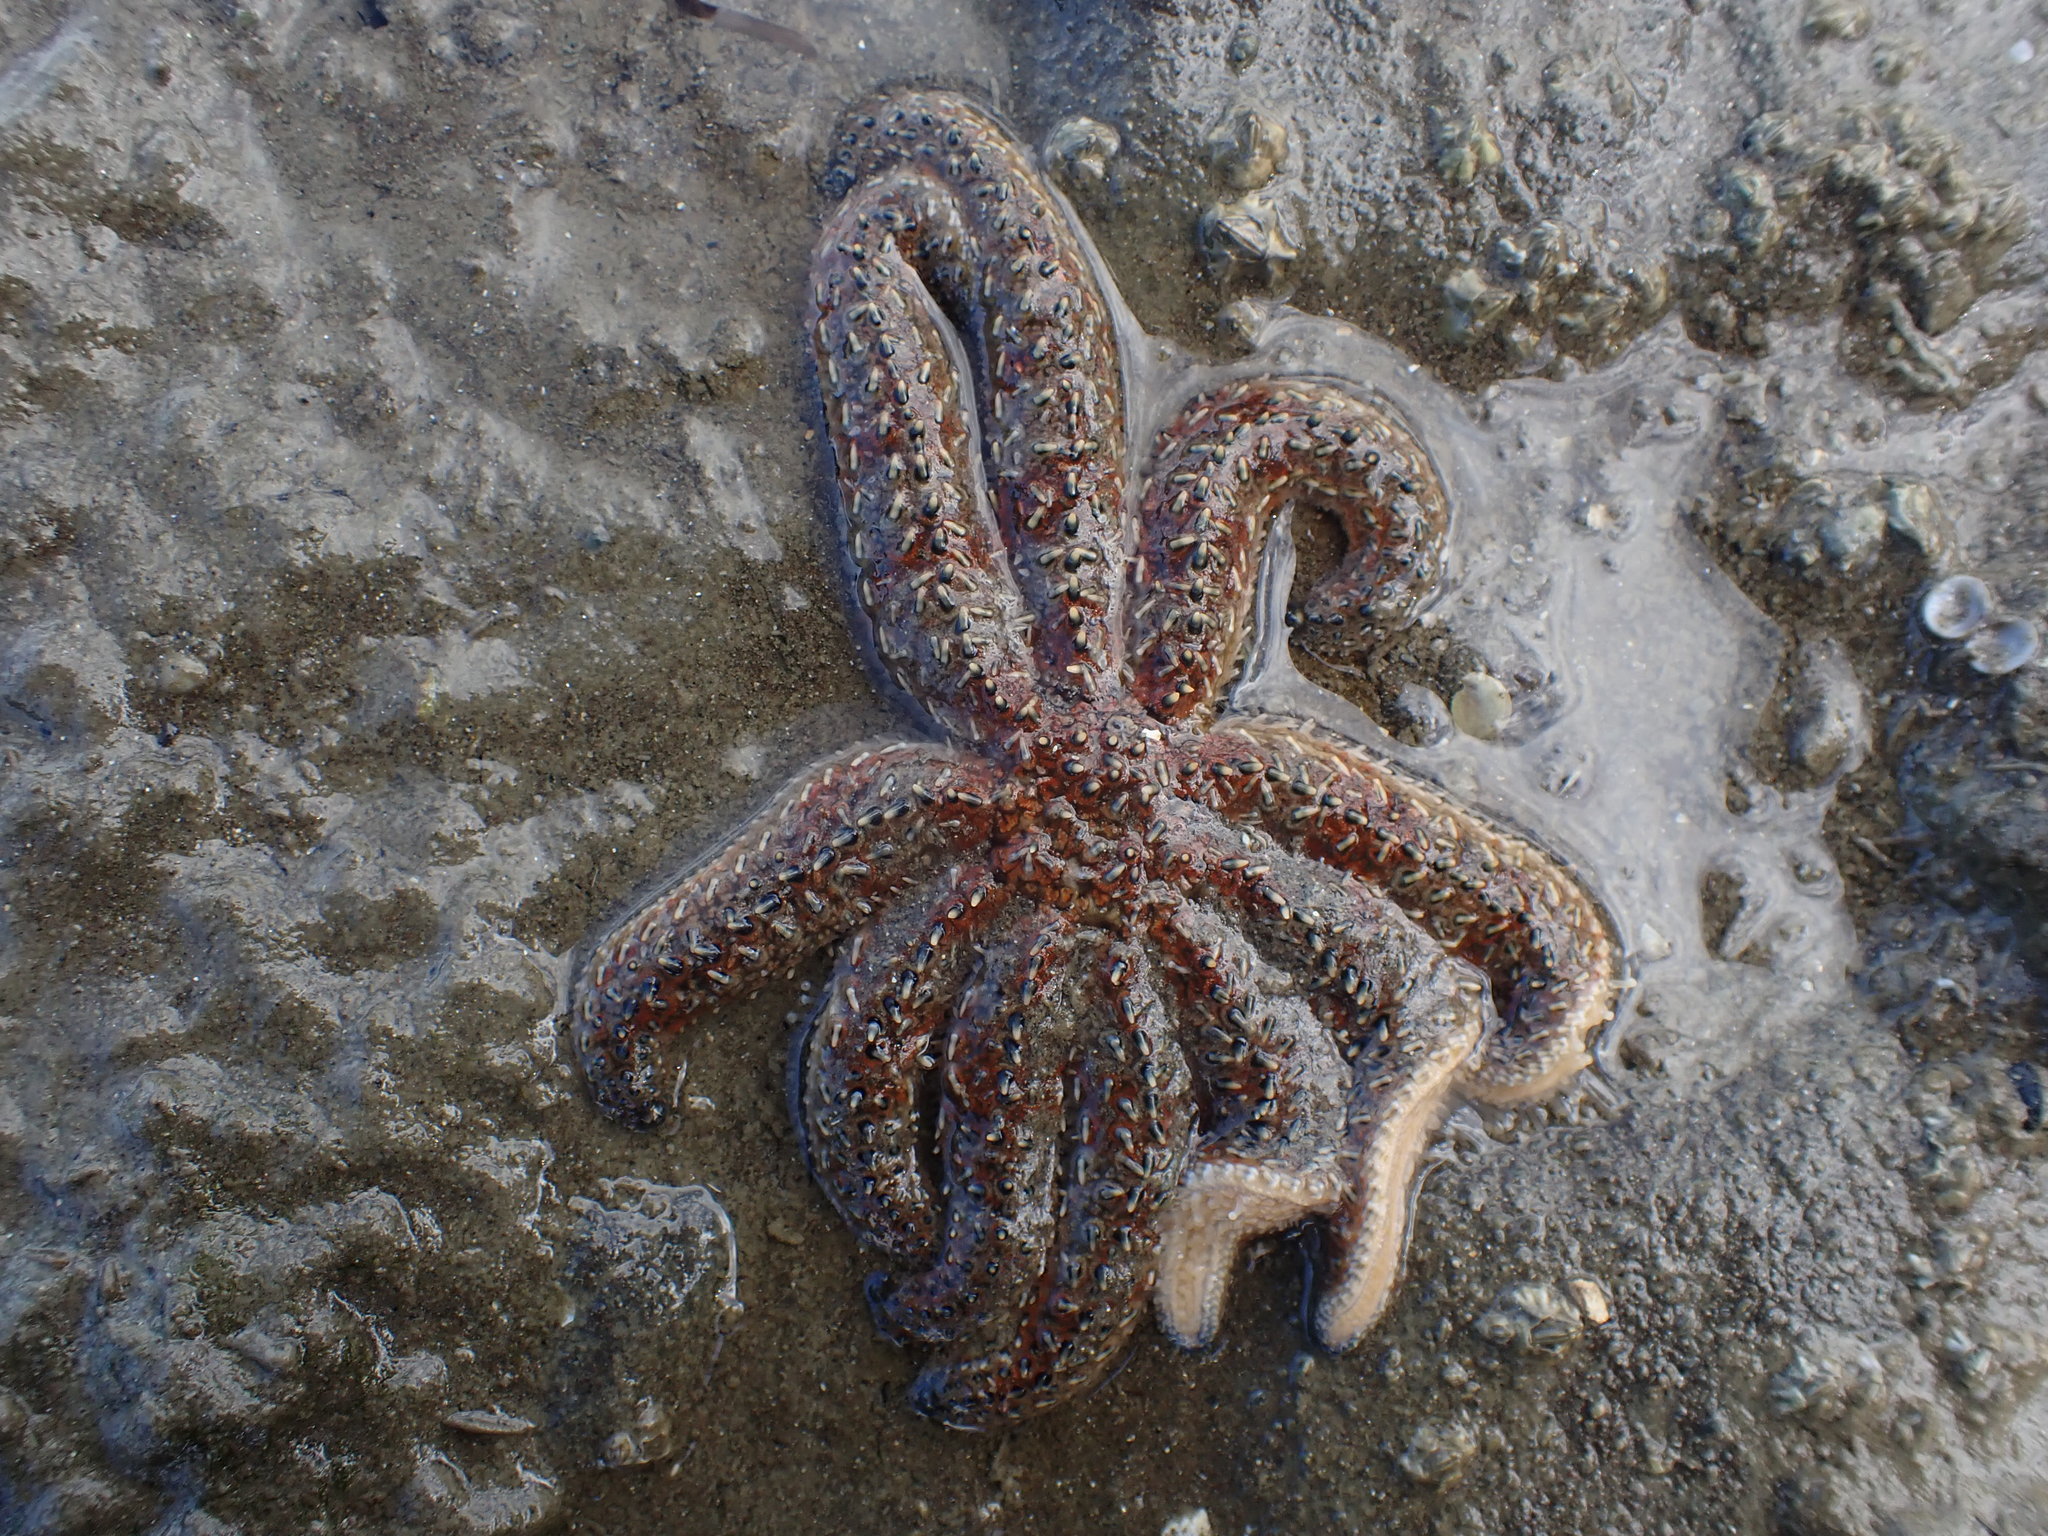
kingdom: Animalia
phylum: Echinodermata
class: Asteroidea
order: Forcipulatida
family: Asteriidae
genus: Coscinasterias
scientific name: Coscinasterias muricata
